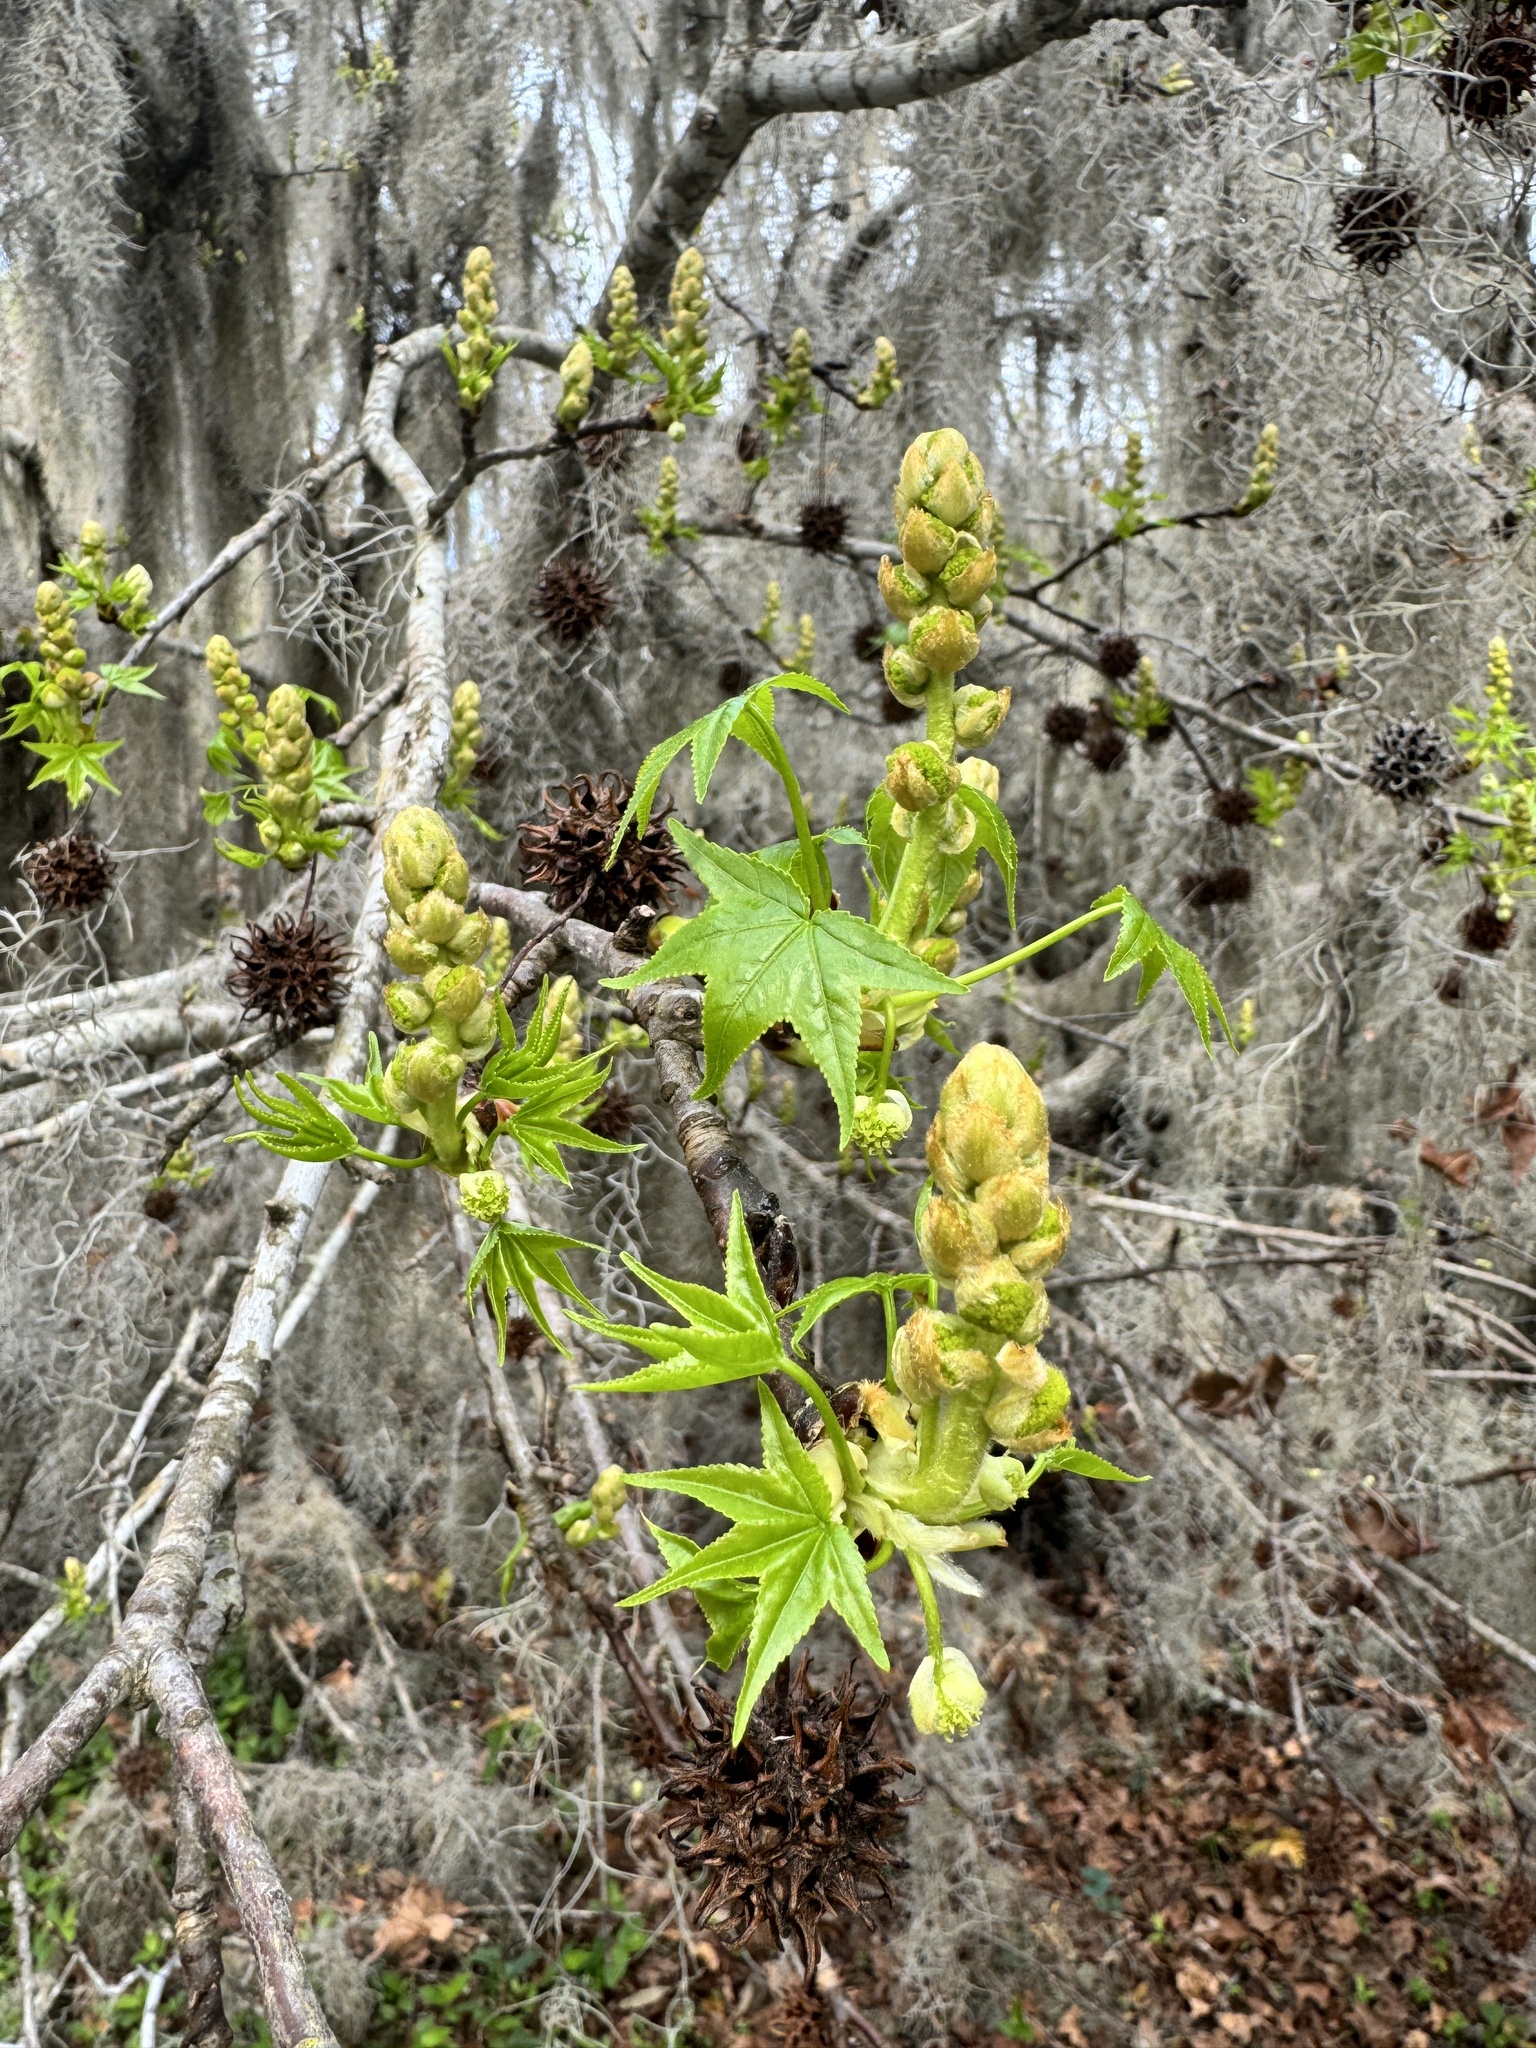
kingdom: Plantae
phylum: Tracheophyta
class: Magnoliopsida
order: Saxifragales
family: Altingiaceae
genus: Liquidambar
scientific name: Liquidambar styraciflua
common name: Sweet gum
